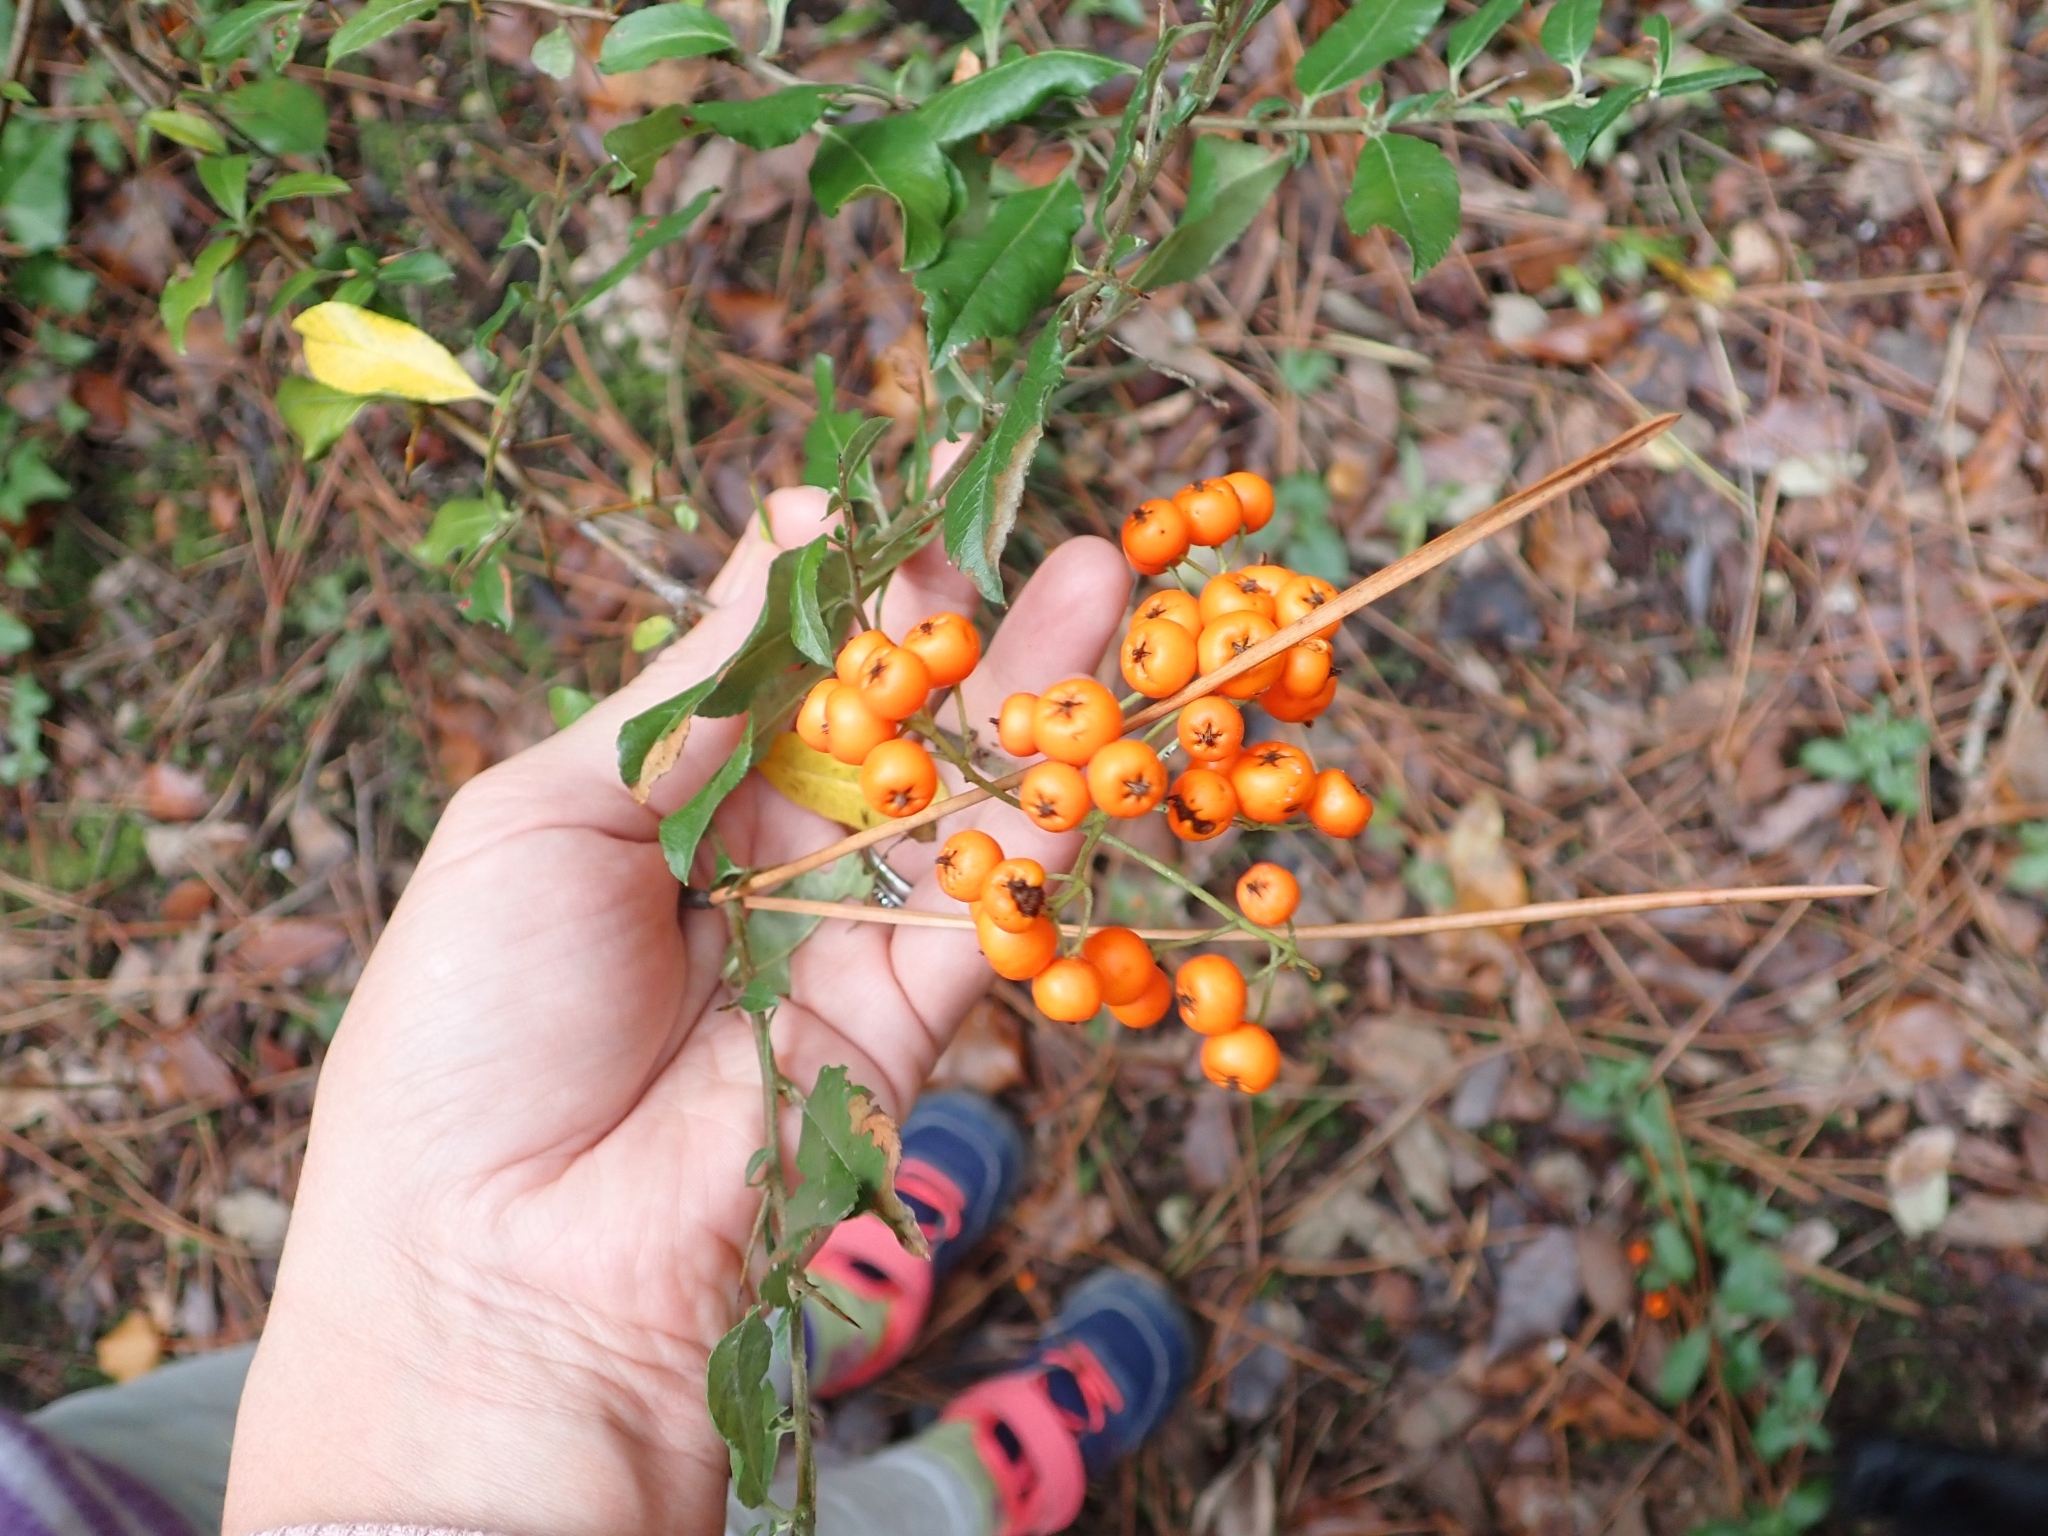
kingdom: Plantae
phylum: Tracheophyta
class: Magnoliopsida
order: Rosales
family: Rosaceae
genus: Pyracantha
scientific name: Pyracantha coccinea
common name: Firethorn
